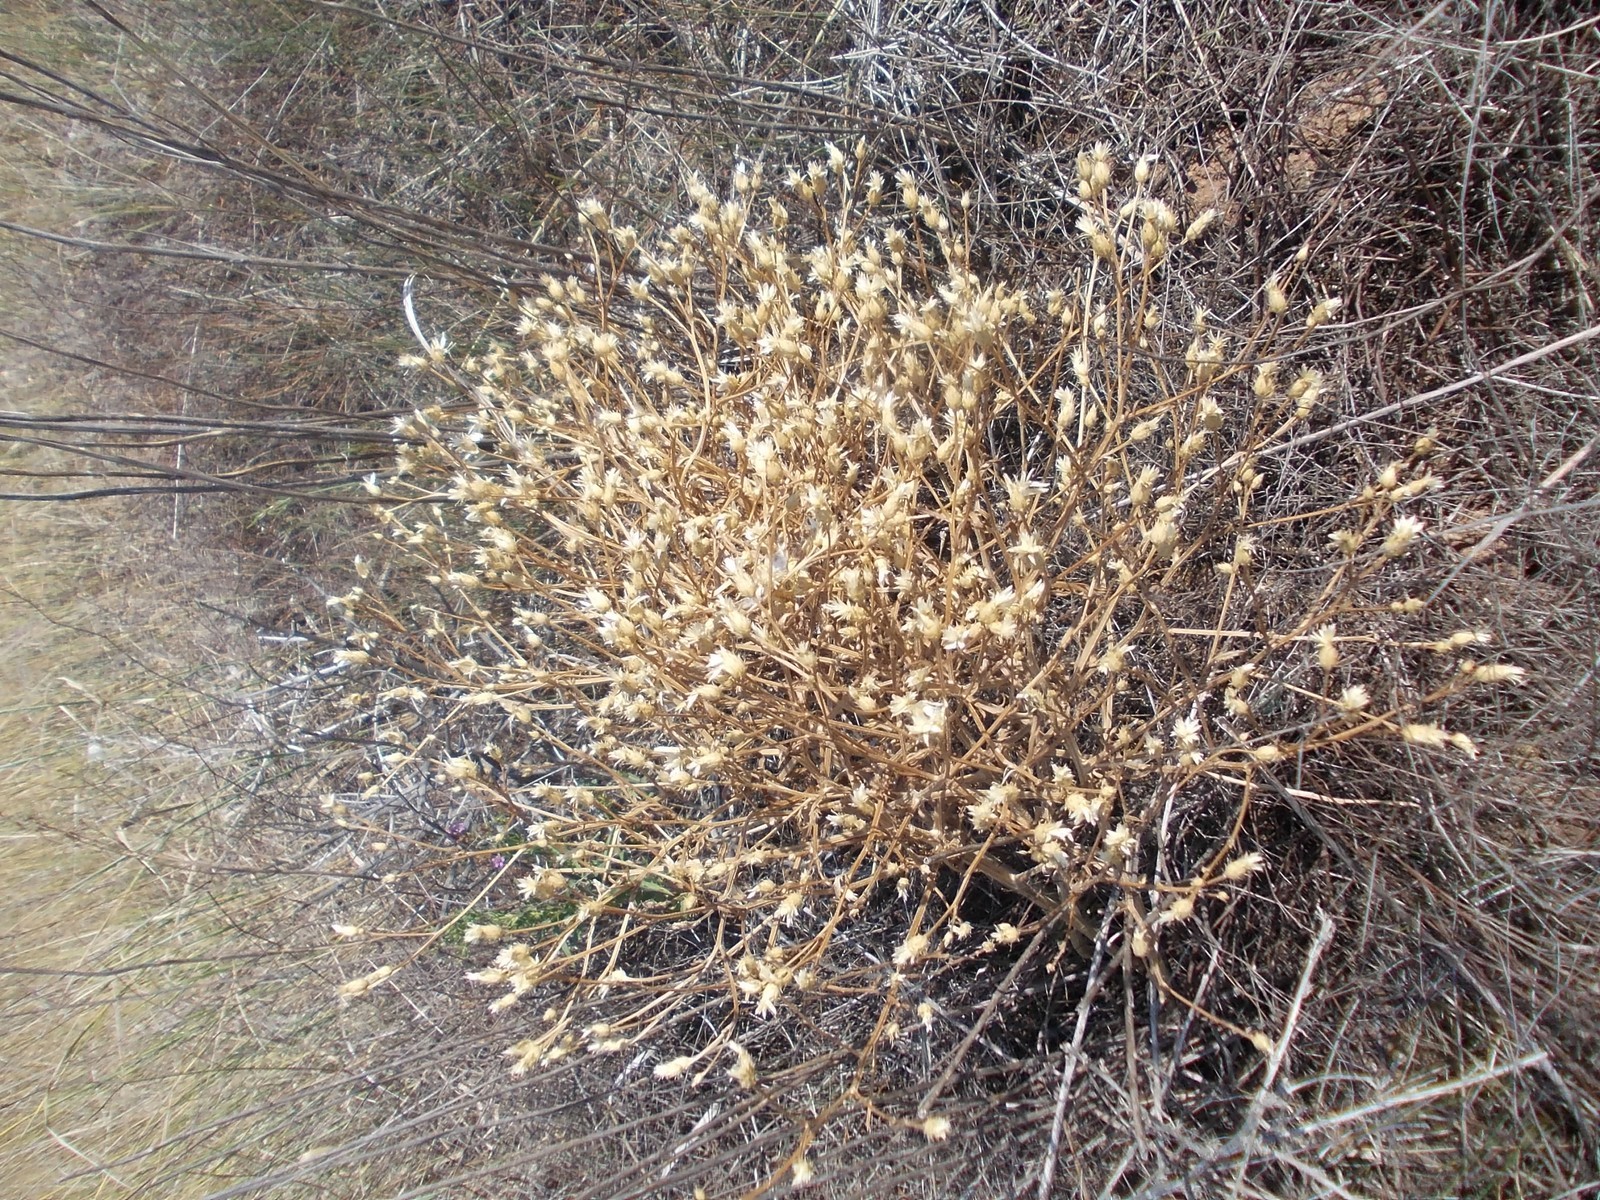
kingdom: Plantae
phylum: Tracheophyta
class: Magnoliopsida
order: Asterales
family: Asteraceae
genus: Klasea
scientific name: Klasea erucifolia
